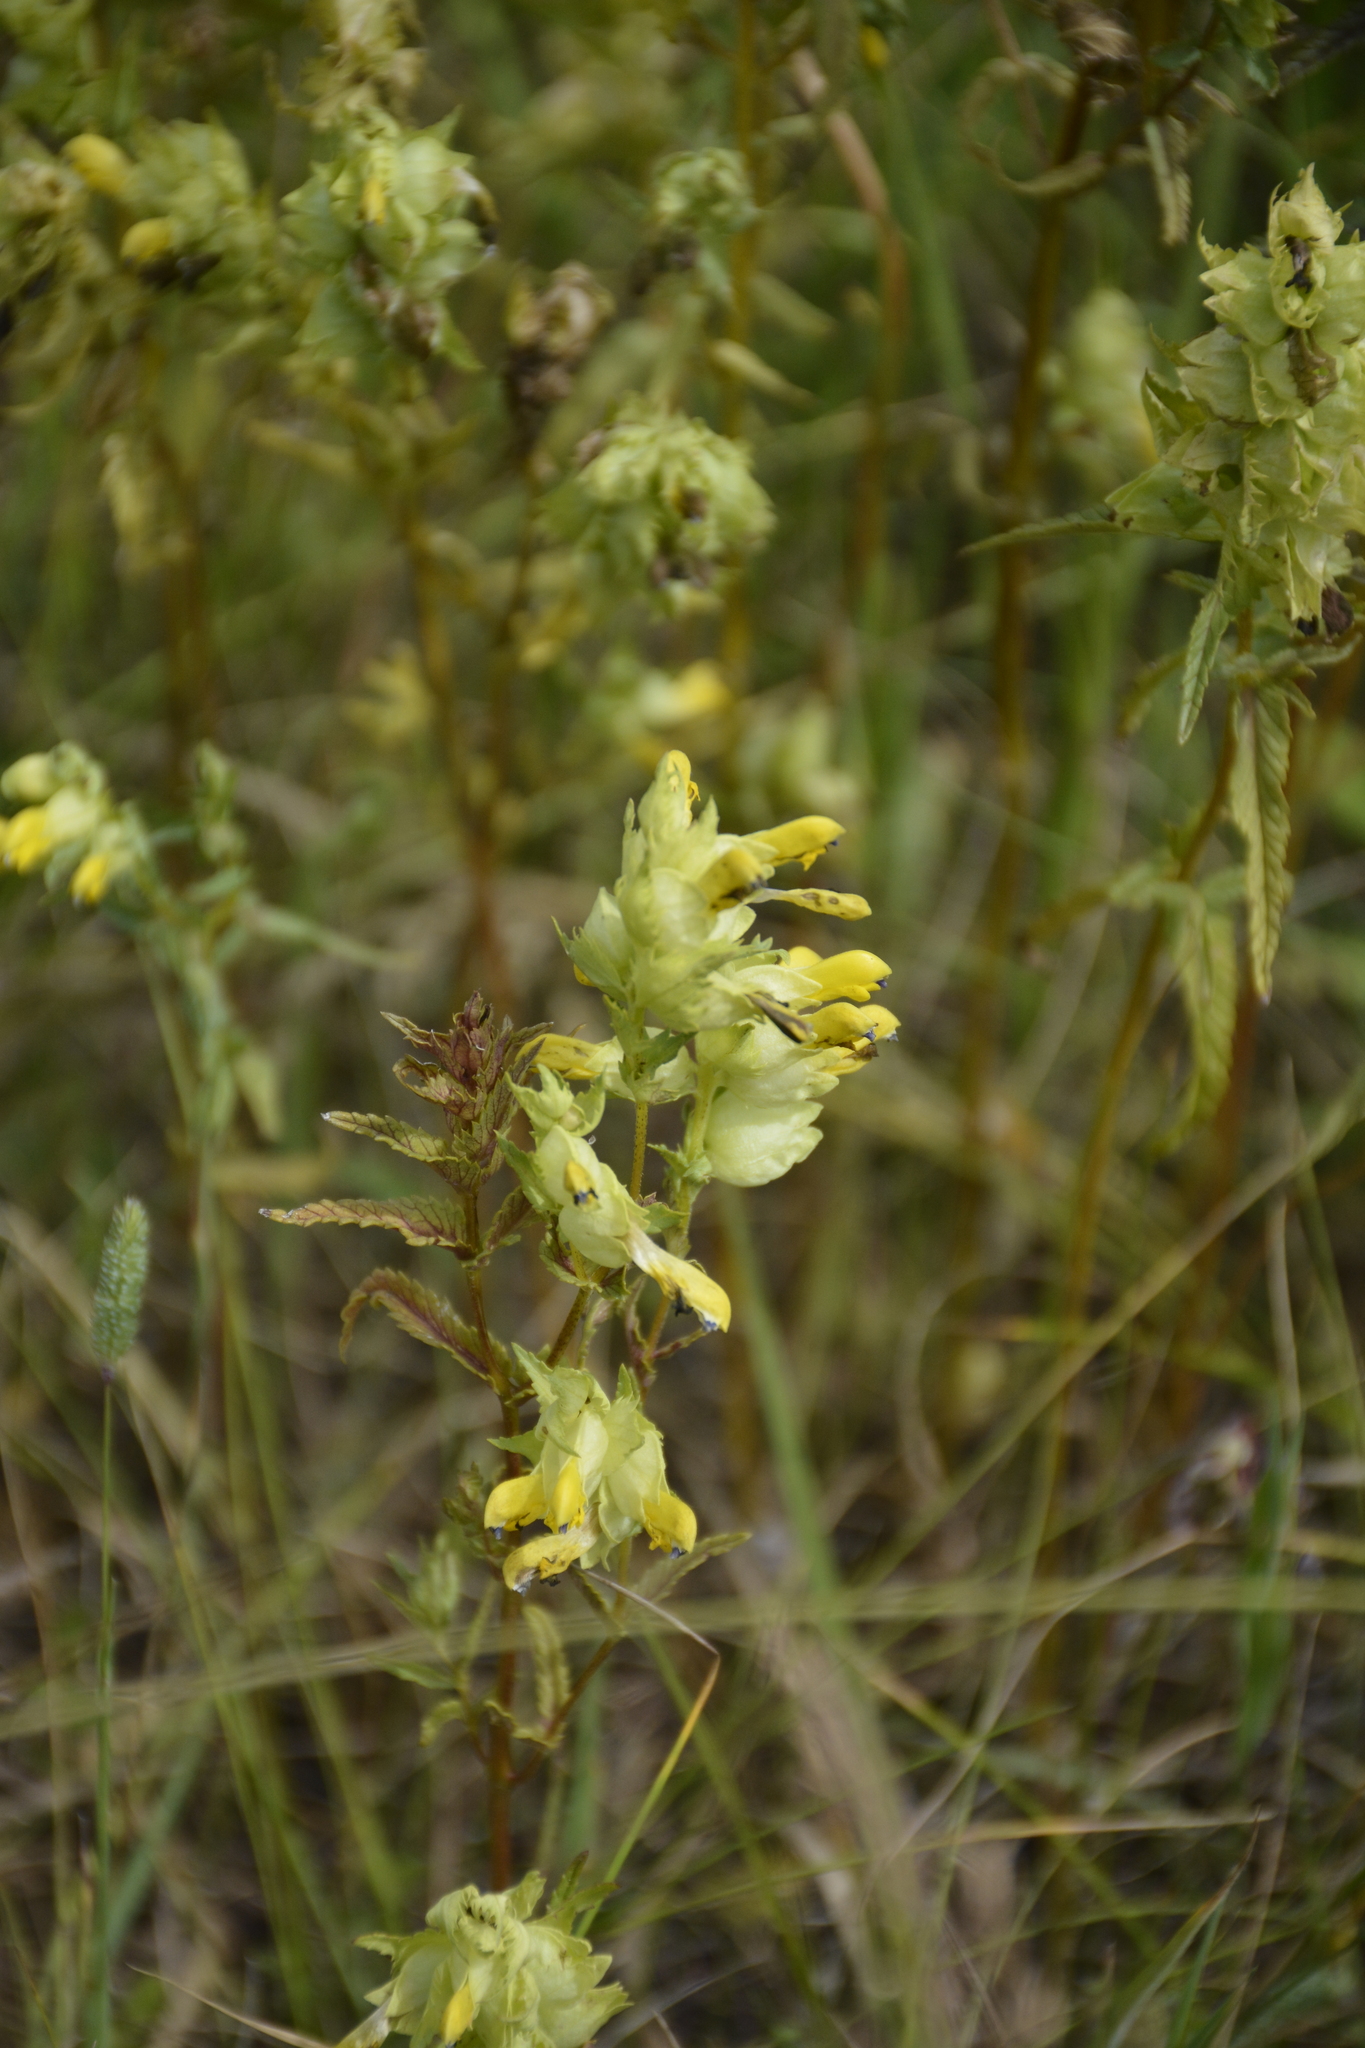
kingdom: Plantae
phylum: Tracheophyta
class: Magnoliopsida
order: Lamiales
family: Orobanchaceae
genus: Rhinanthus
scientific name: Rhinanthus serotinus
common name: Late-flowering yellow rattle
